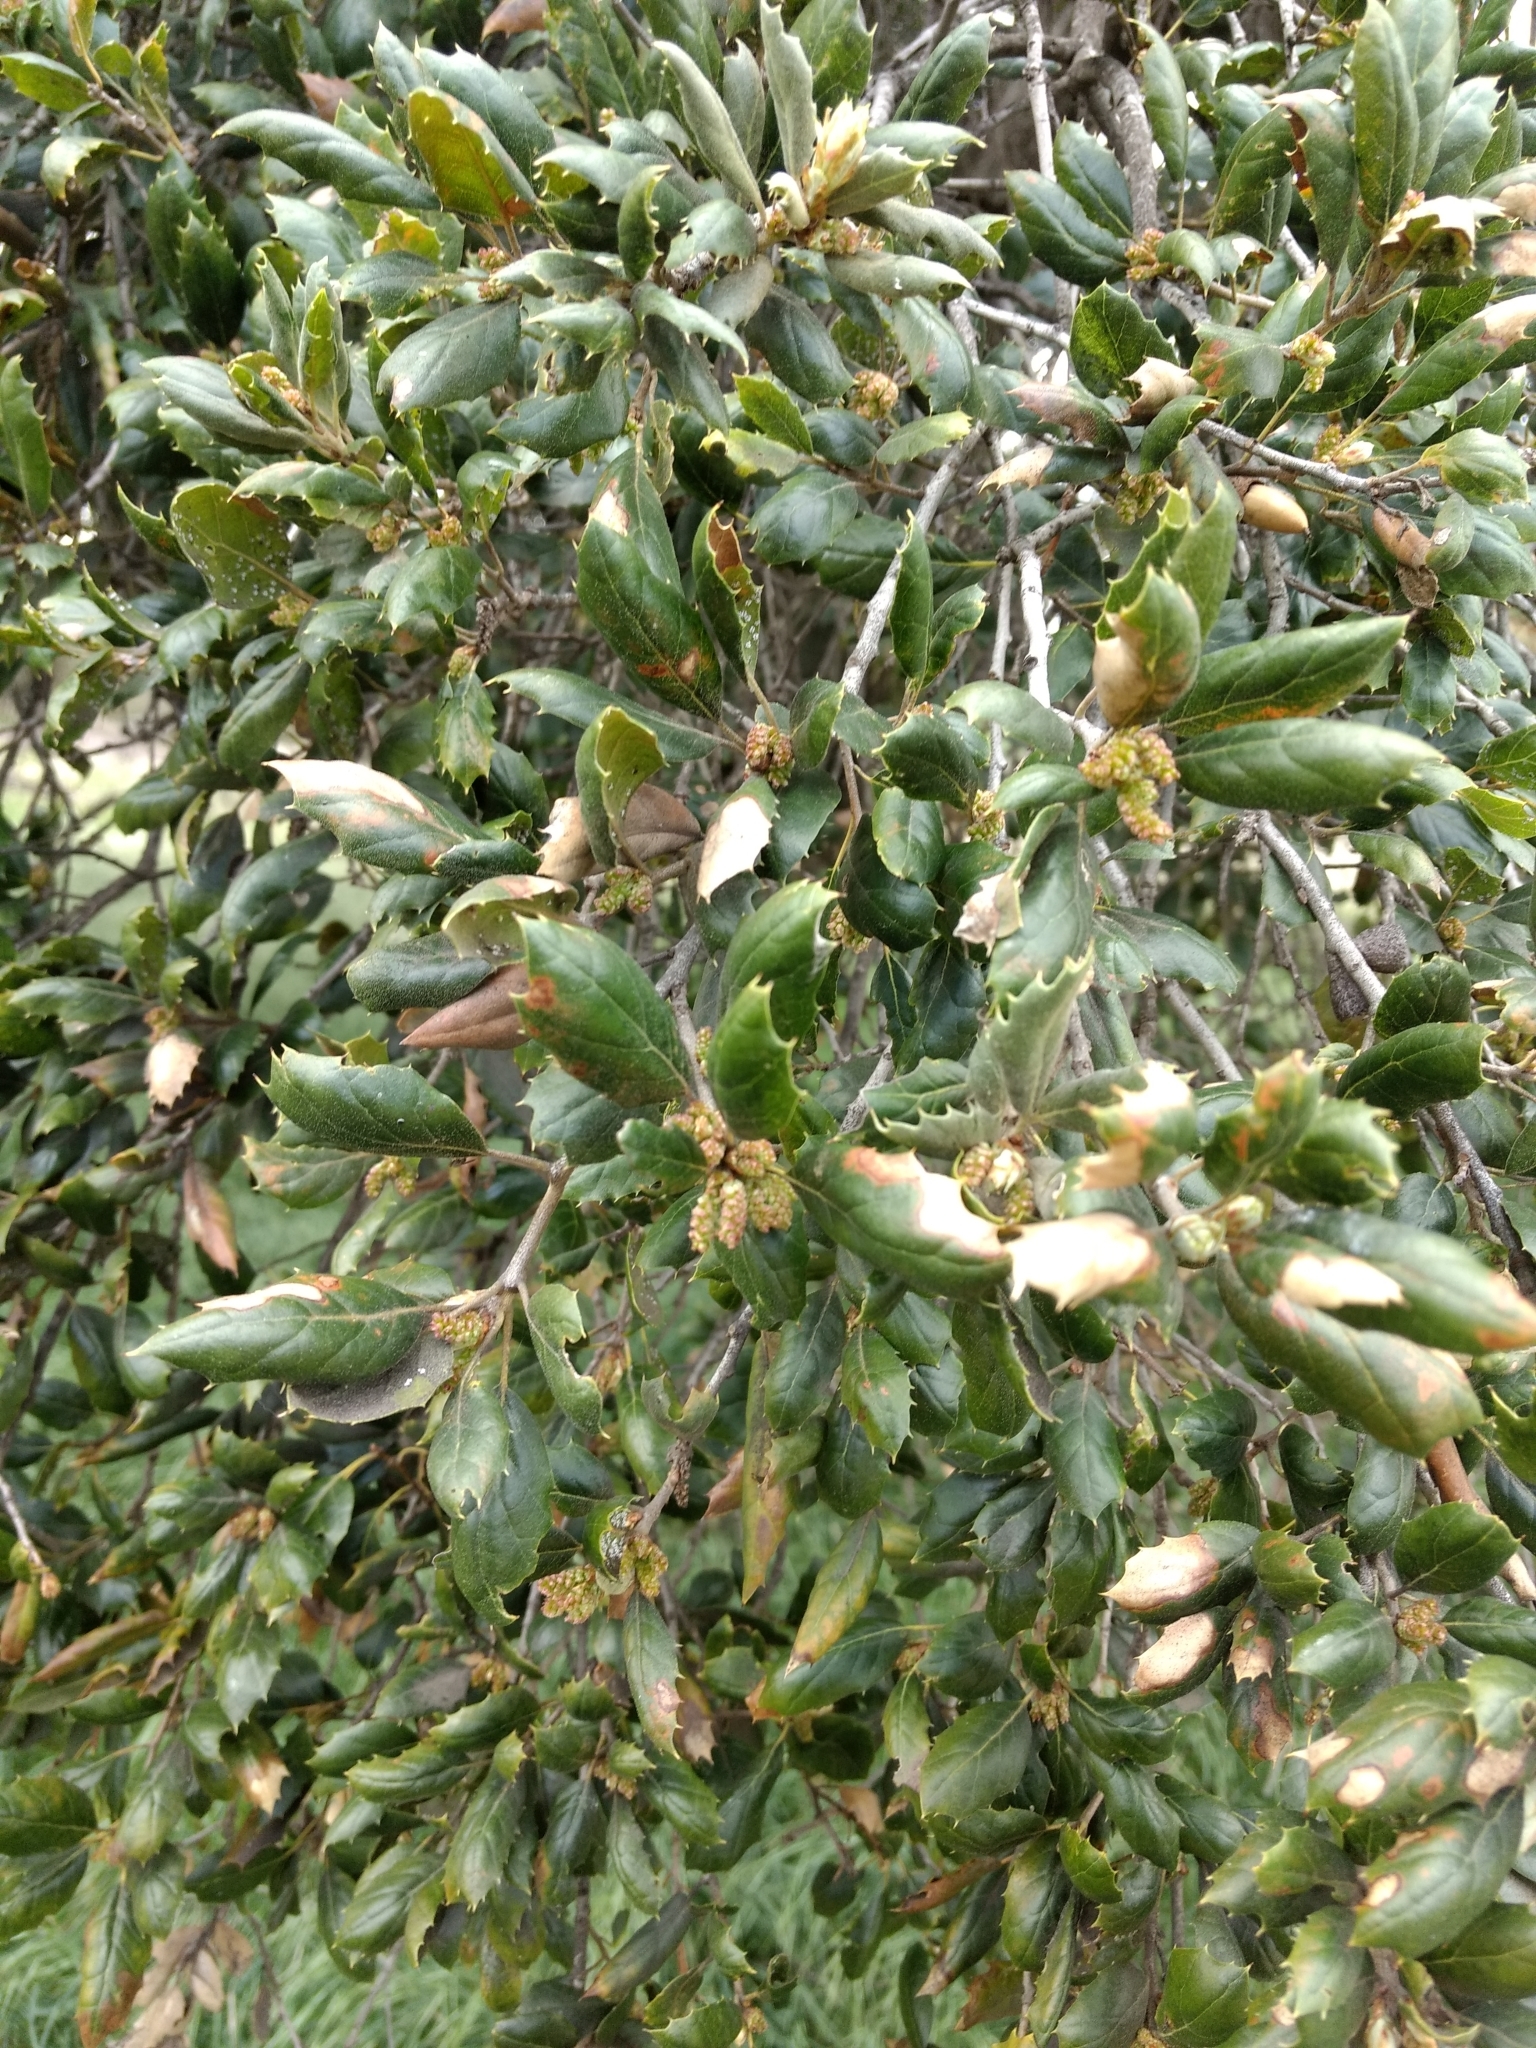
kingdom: Plantae
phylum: Tracheophyta
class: Magnoliopsida
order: Fagales
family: Fagaceae
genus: Quercus
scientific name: Quercus agrifolia
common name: California live oak
